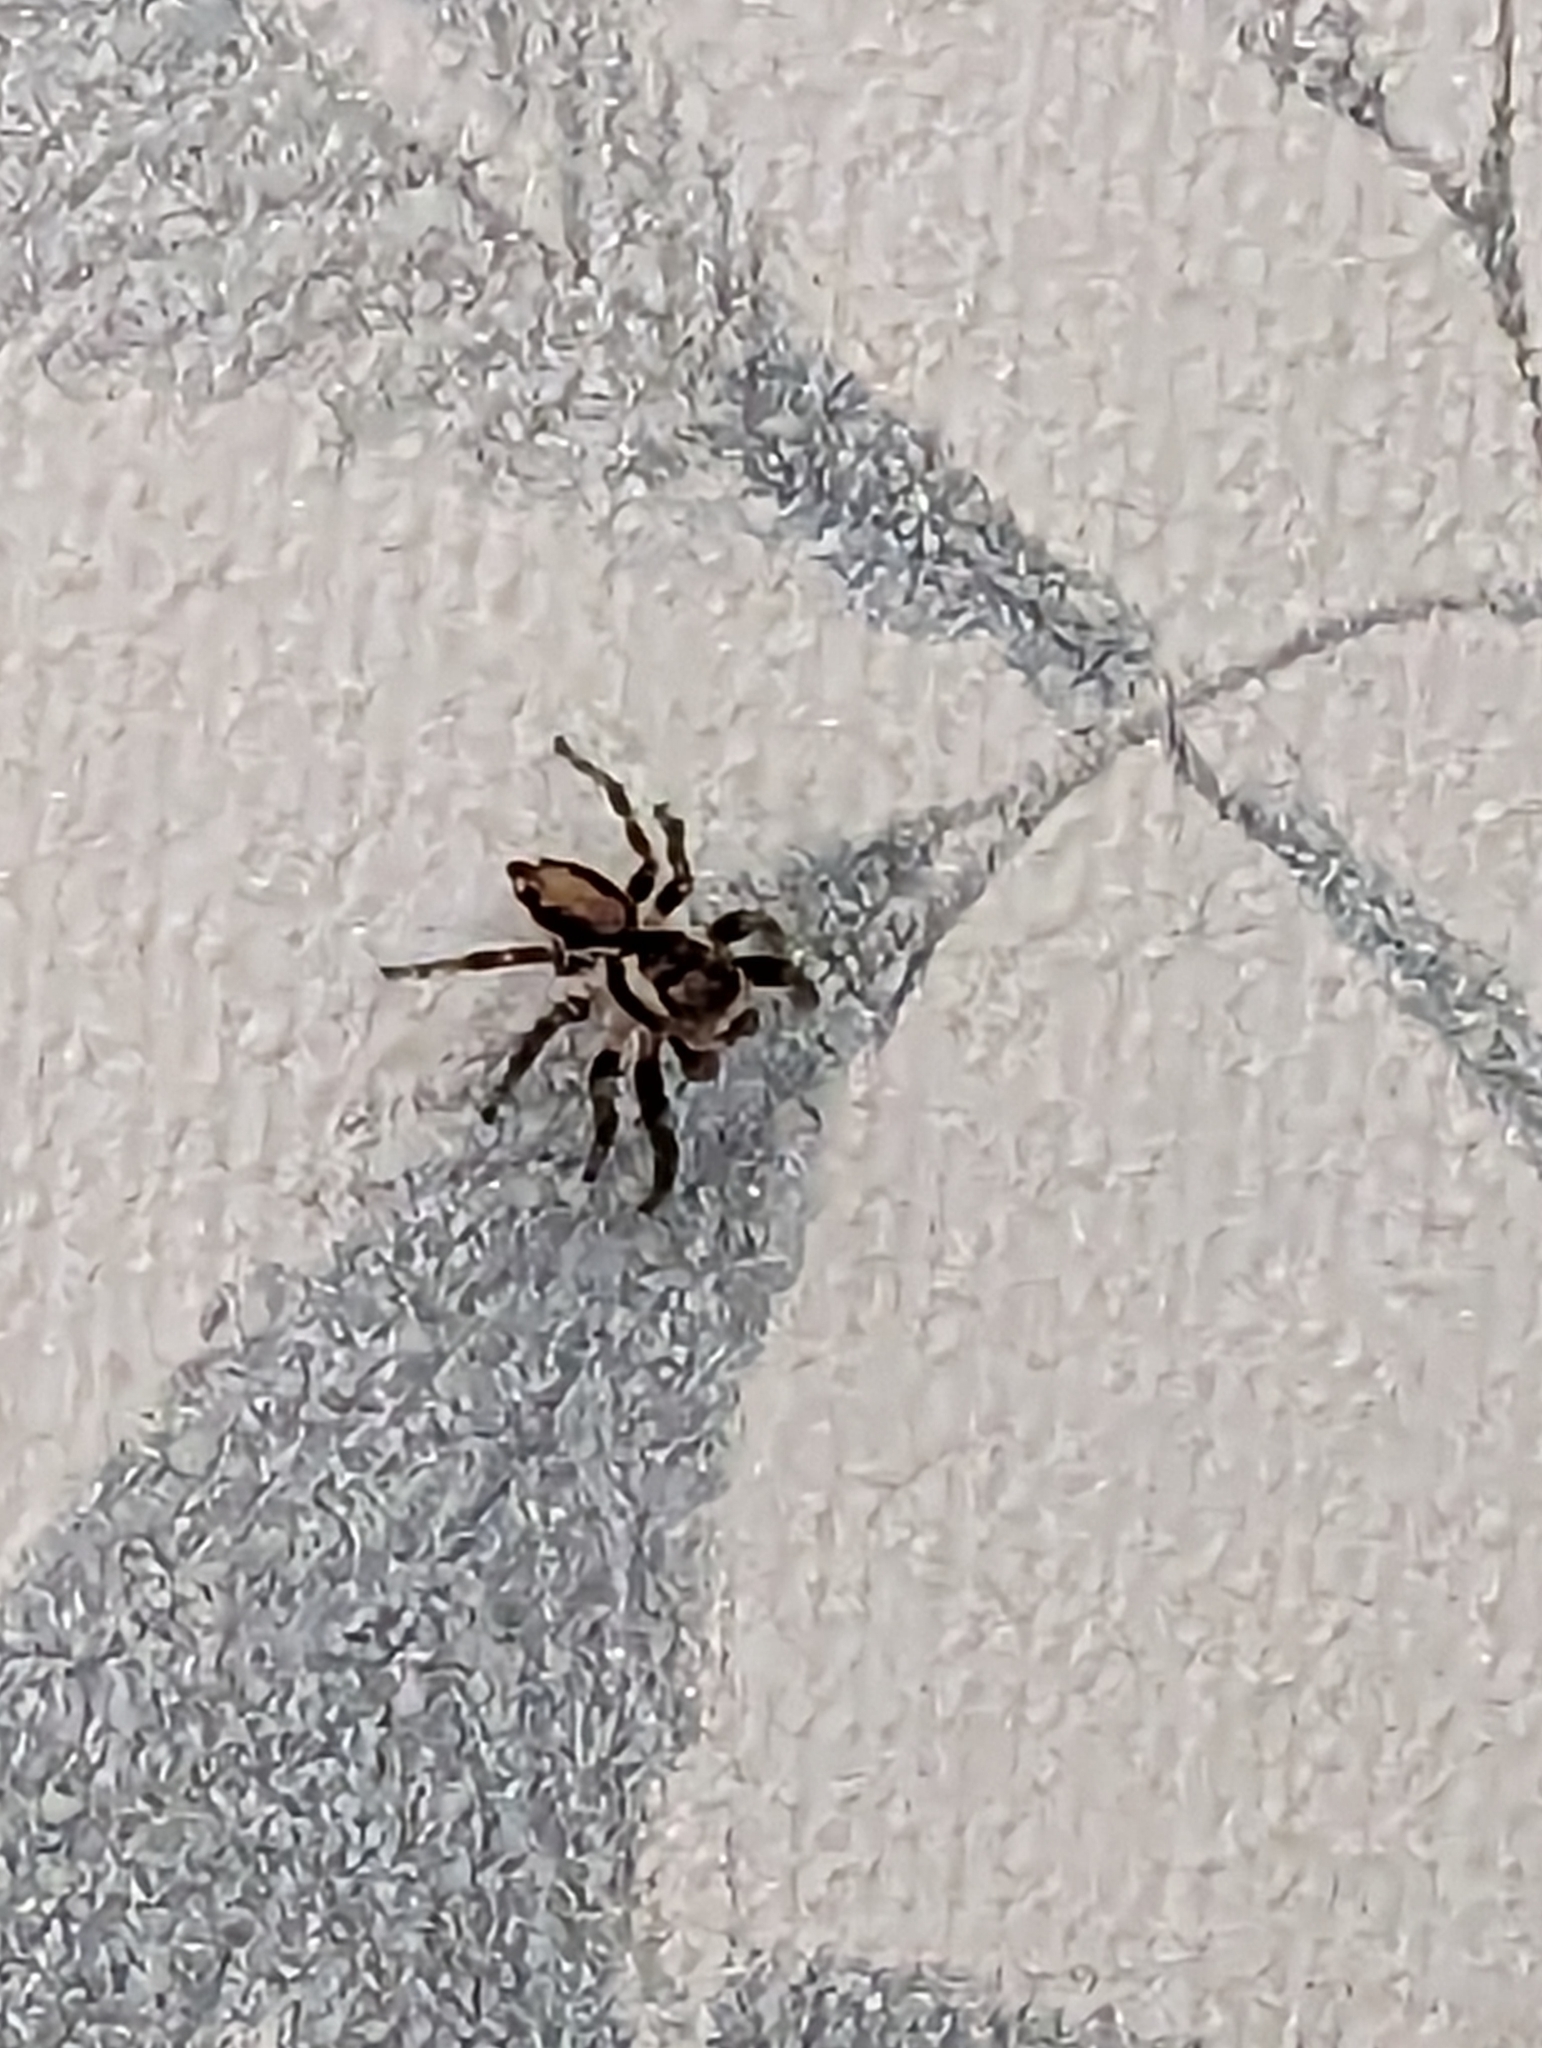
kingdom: Animalia
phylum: Arthropoda
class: Arachnida
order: Araneae
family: Salticidae
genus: Evarcha
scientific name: Evarcha falcata
